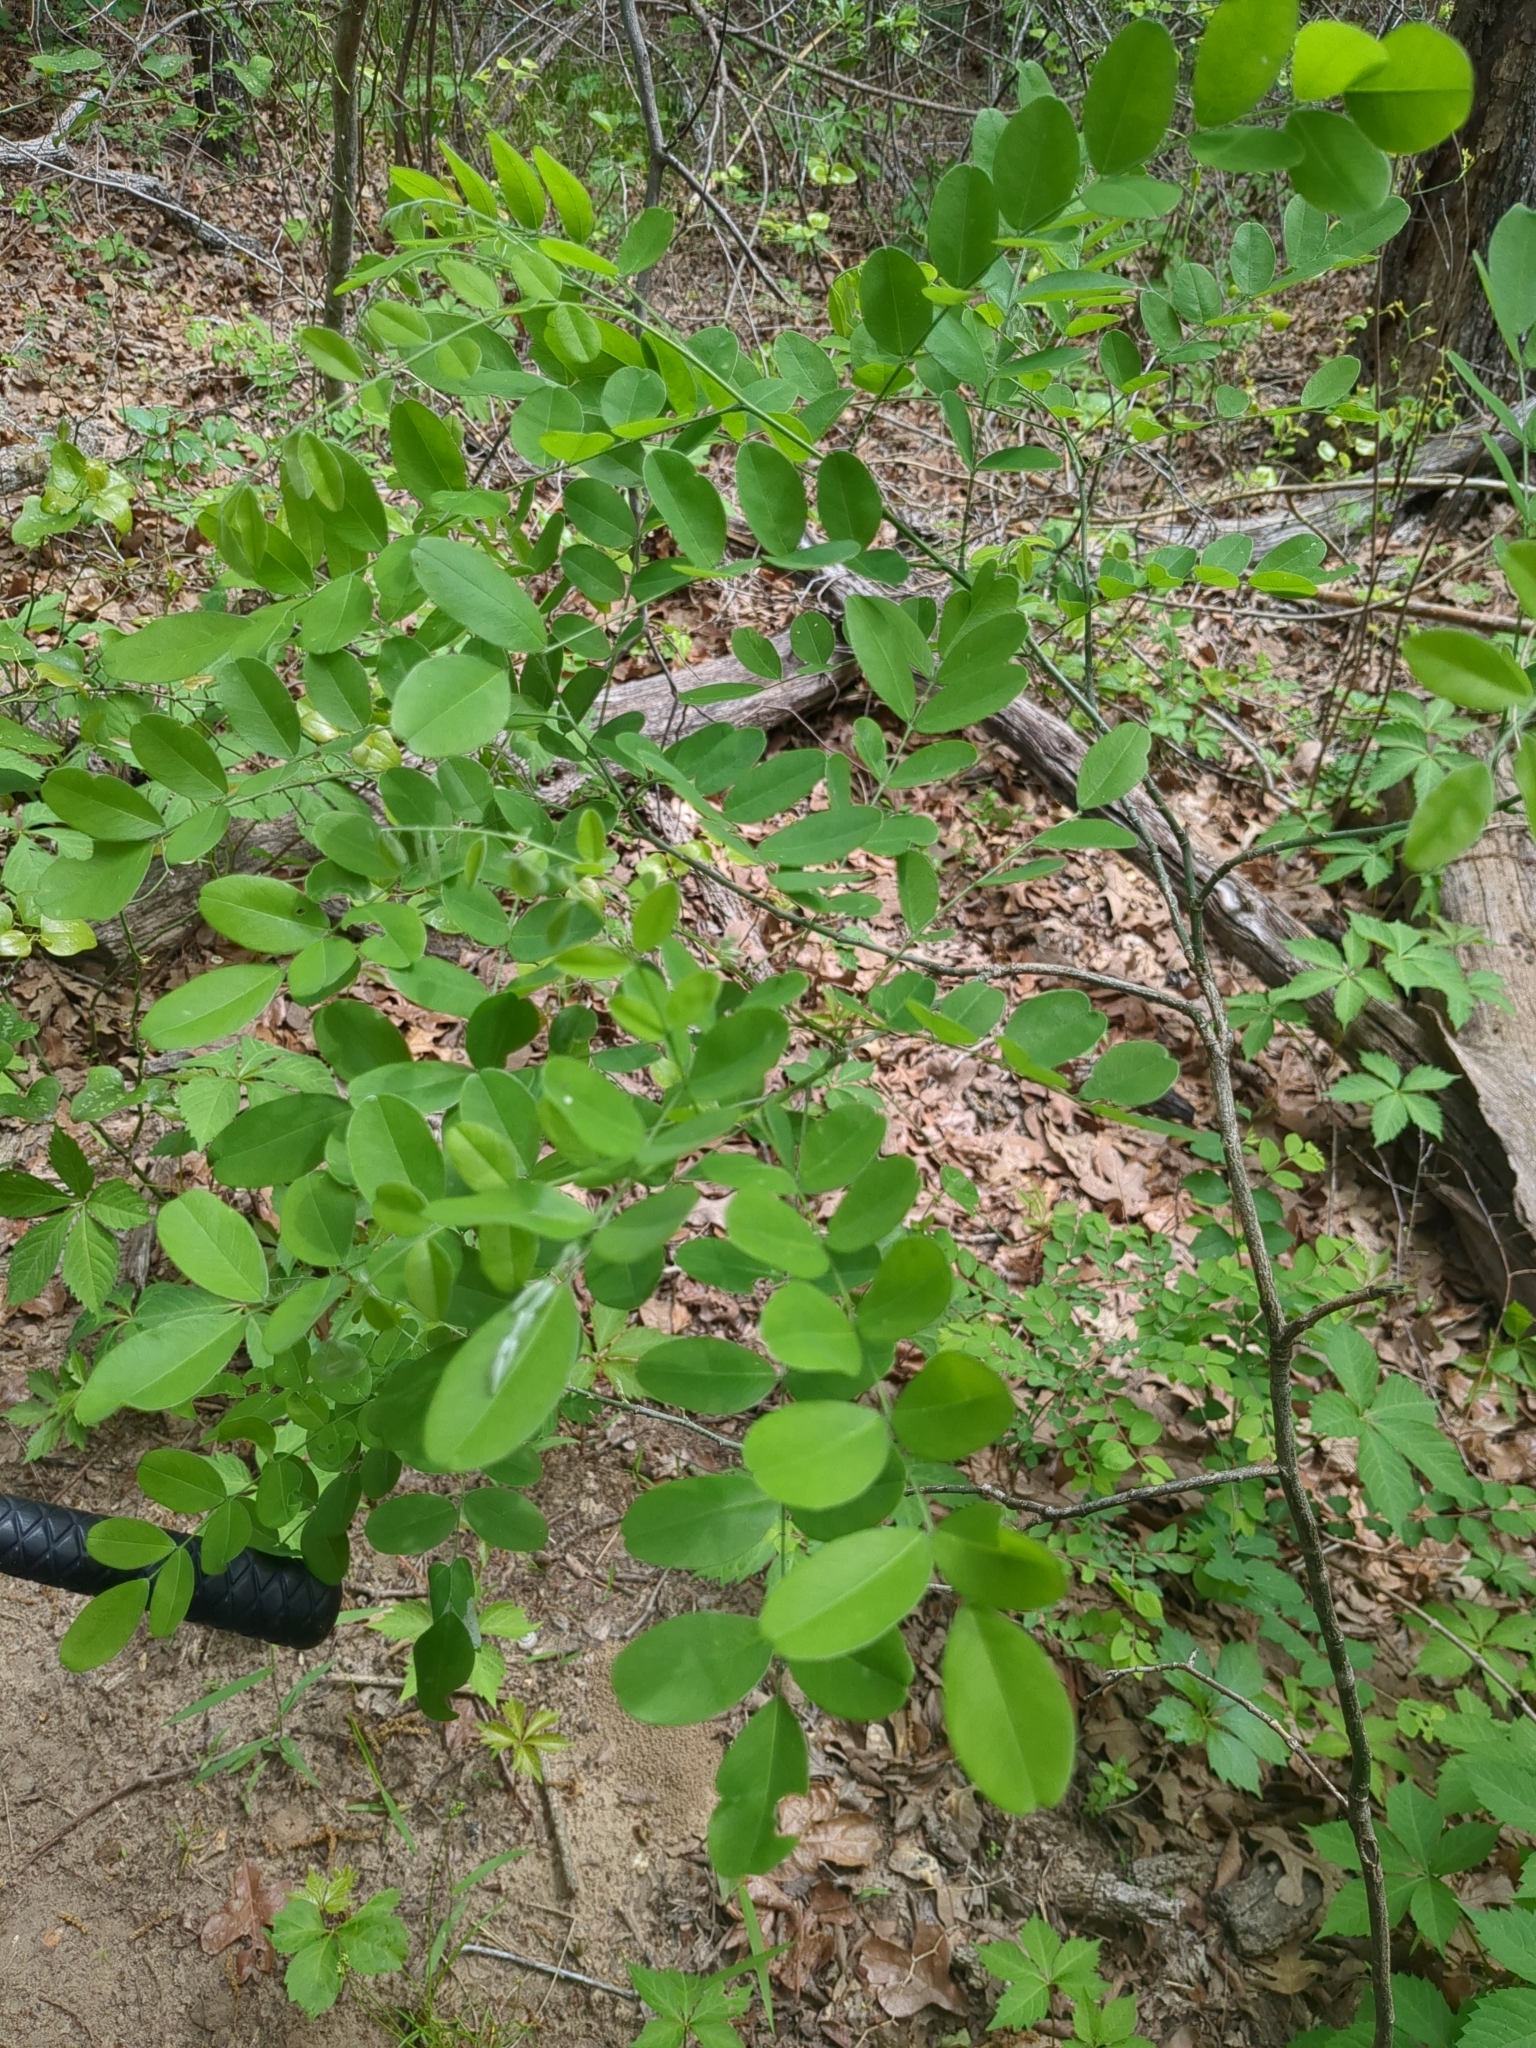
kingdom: Plantae
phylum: Tracheophyta
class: Magnoliopsida
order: Fabales
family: Fabaceae
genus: Styphnolobium
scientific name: Styphnolobium affine
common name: Texas sophora
